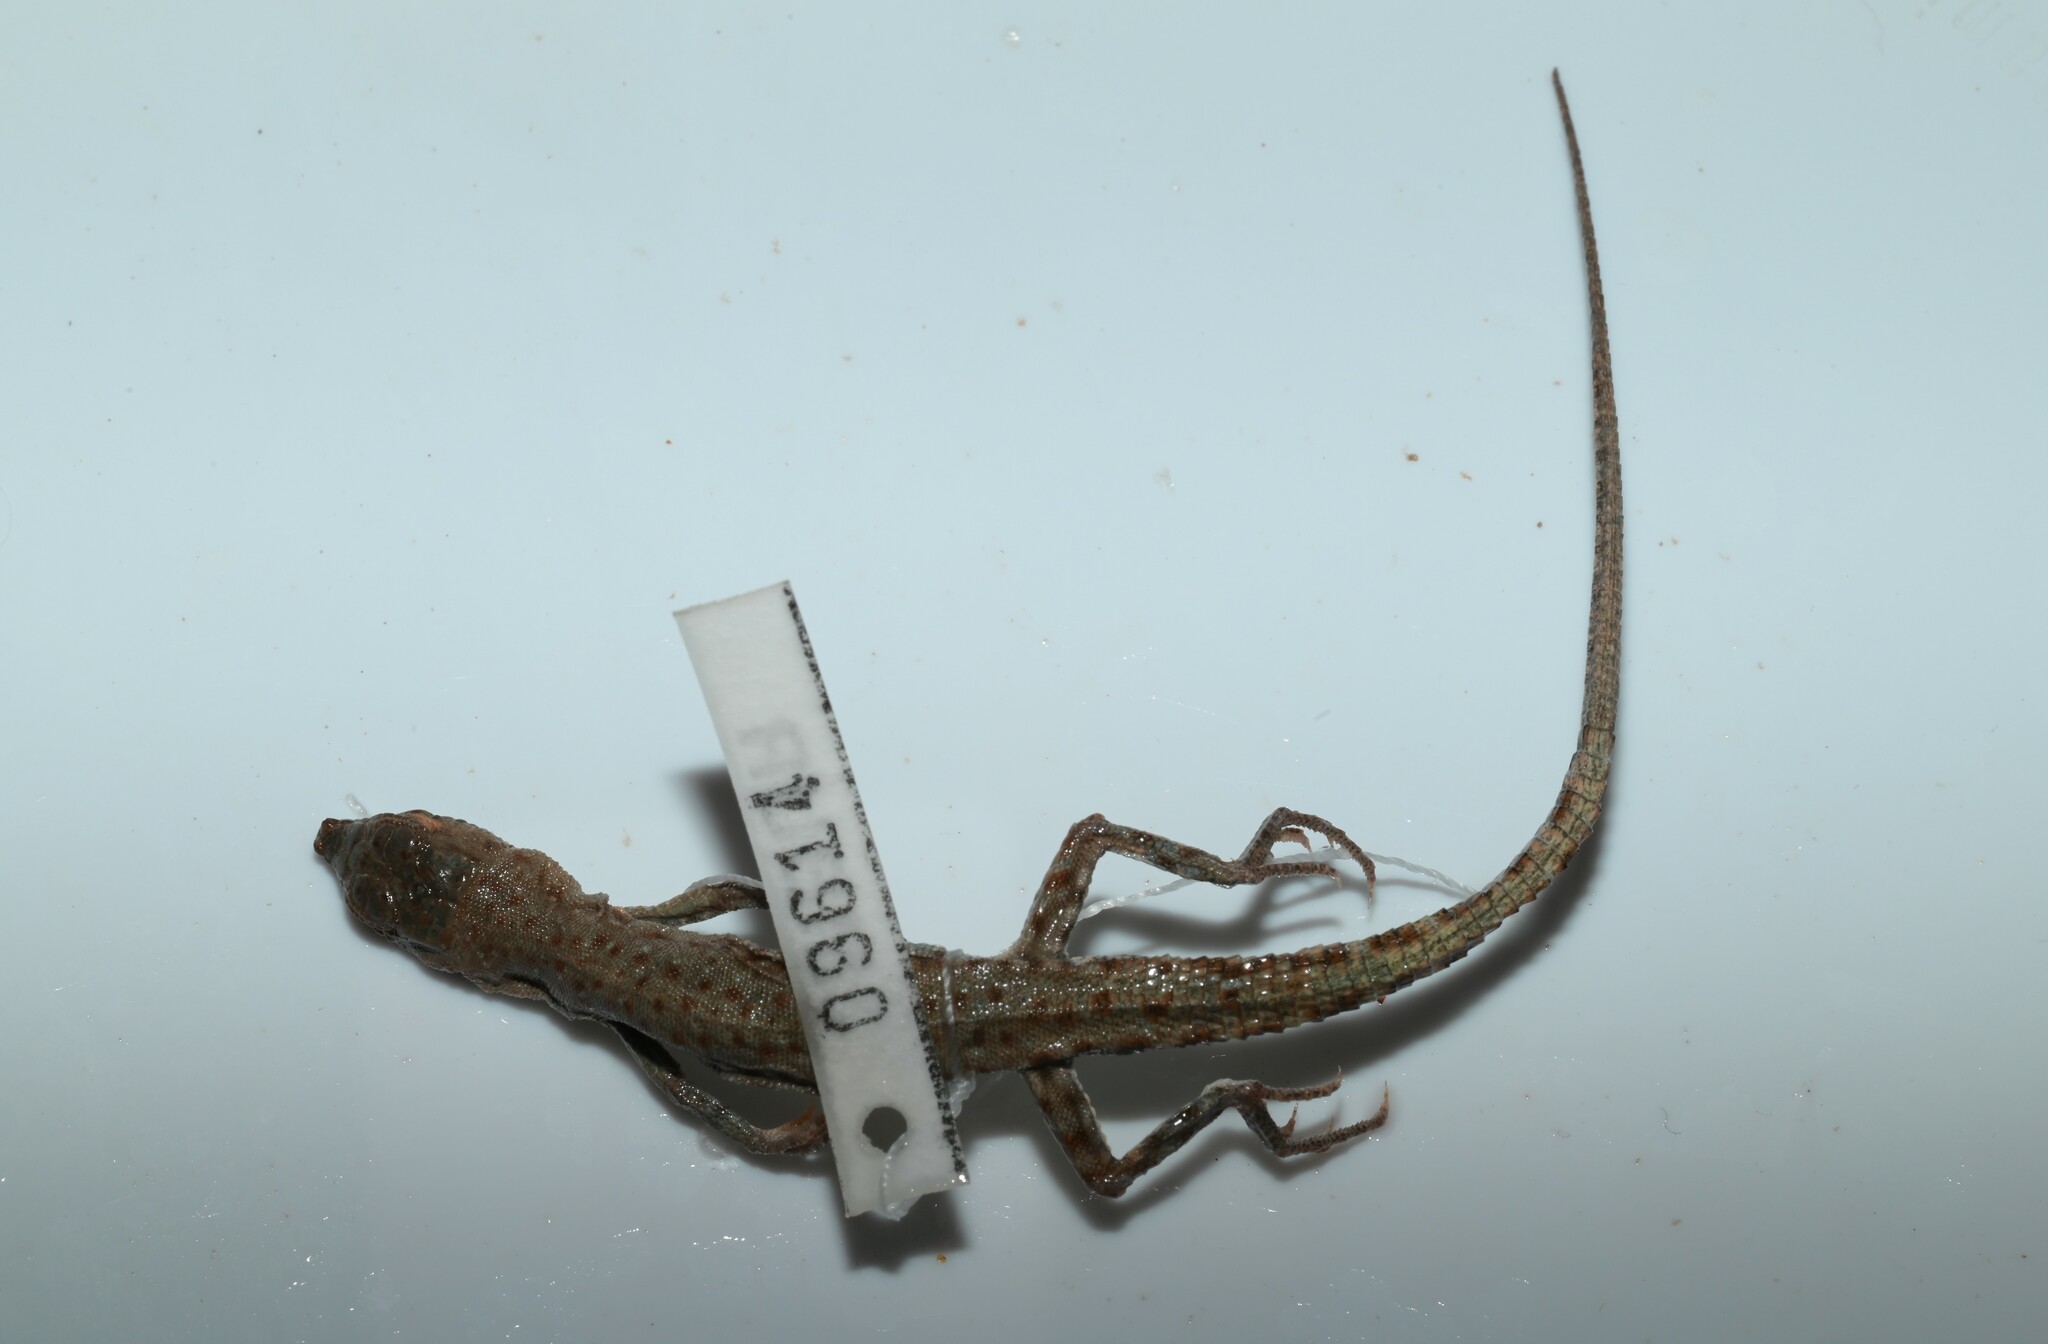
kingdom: Animalia
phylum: Chordata
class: Squamata
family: Lacertidae
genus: Mesalina
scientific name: Mesalina brevirostris
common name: Blanford's short-nosed desert lizard
